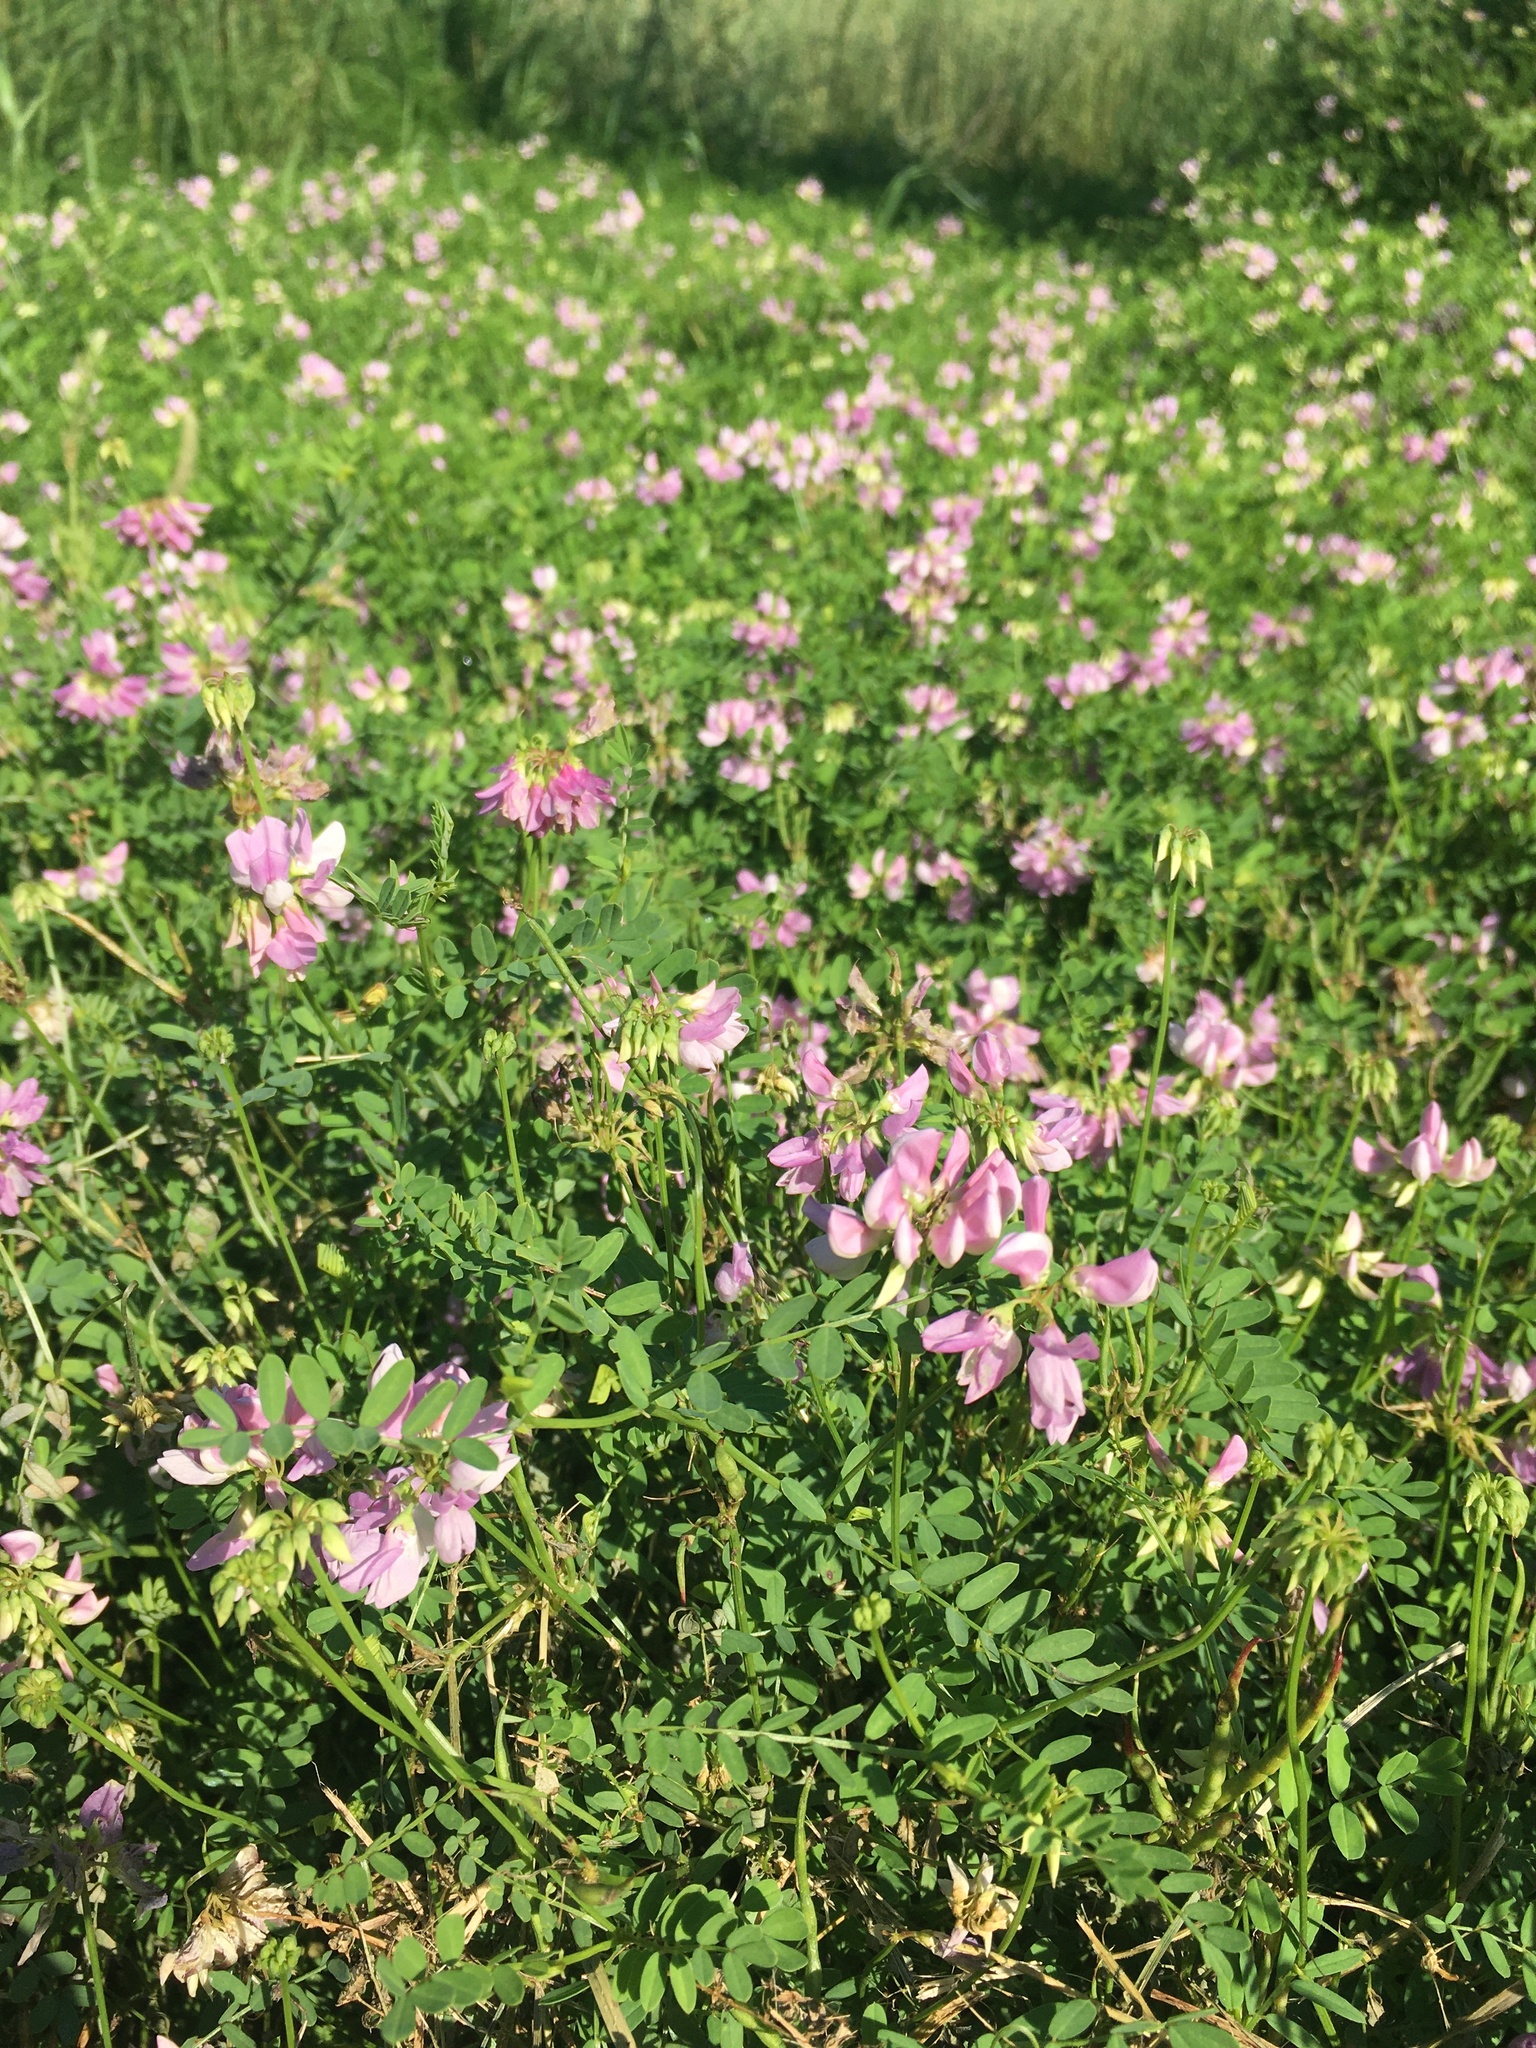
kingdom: Plantae
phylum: Tracheophyta
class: Magnoliopsida
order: Fabales
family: Fabaceae
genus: Coronilla
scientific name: Coronilla varia
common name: Crownvetch
